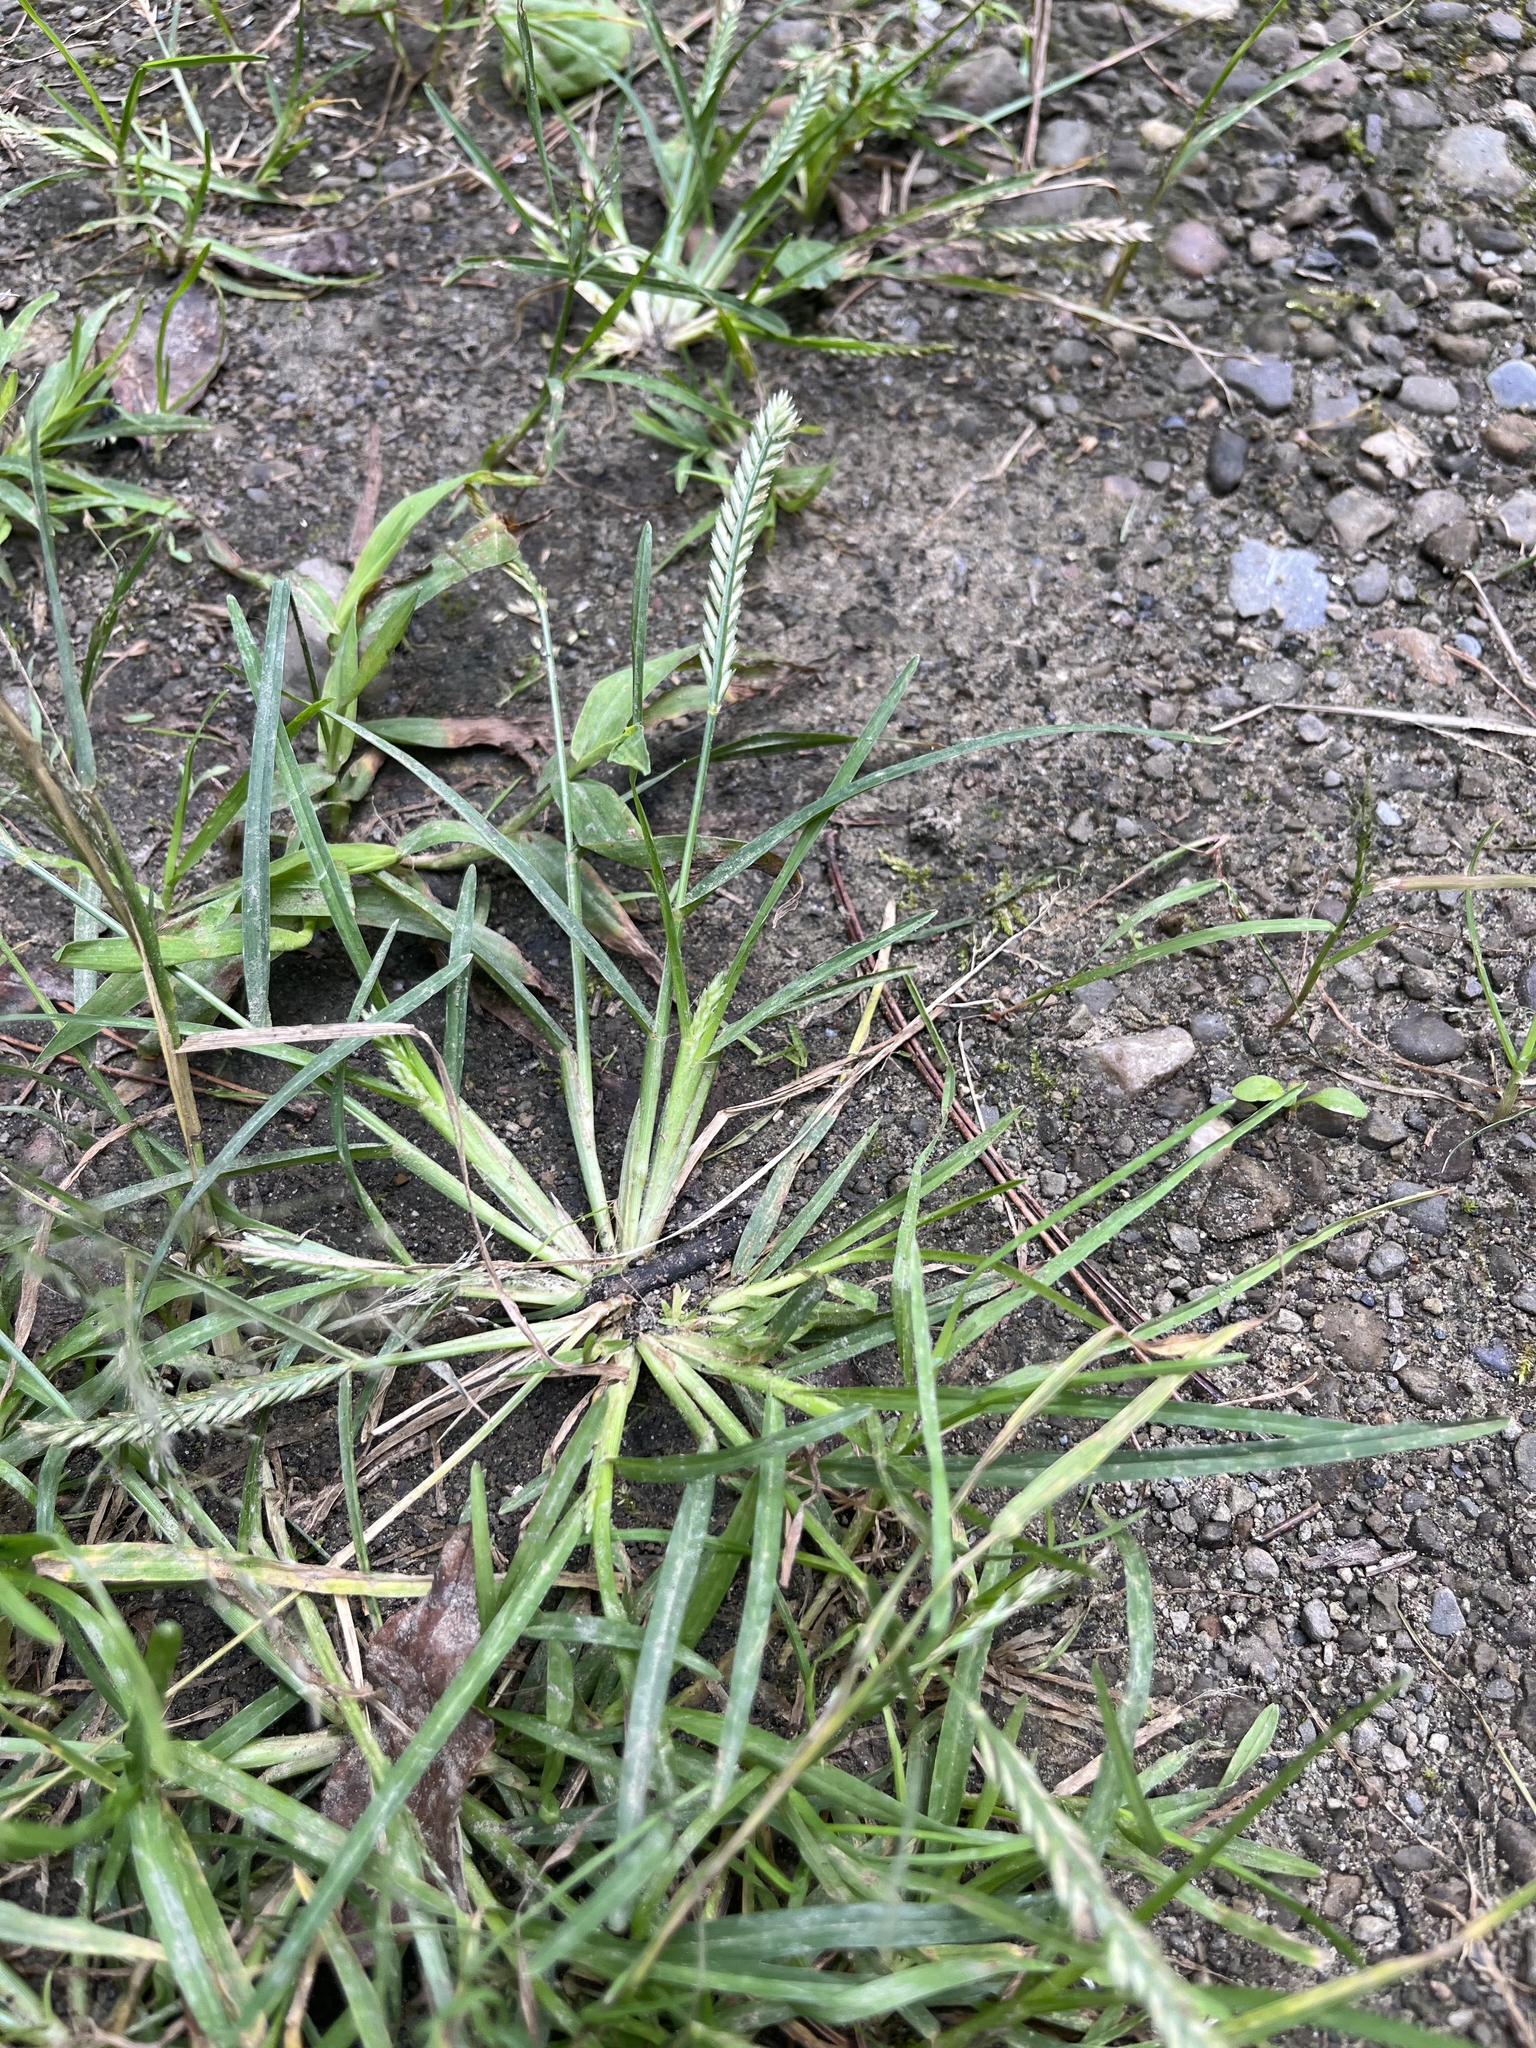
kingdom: Plantae
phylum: Tracheophyta
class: Liliopsida
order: Poales
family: Poaceae
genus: Eleusine
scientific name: Eleusine indica
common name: Yard-grass
